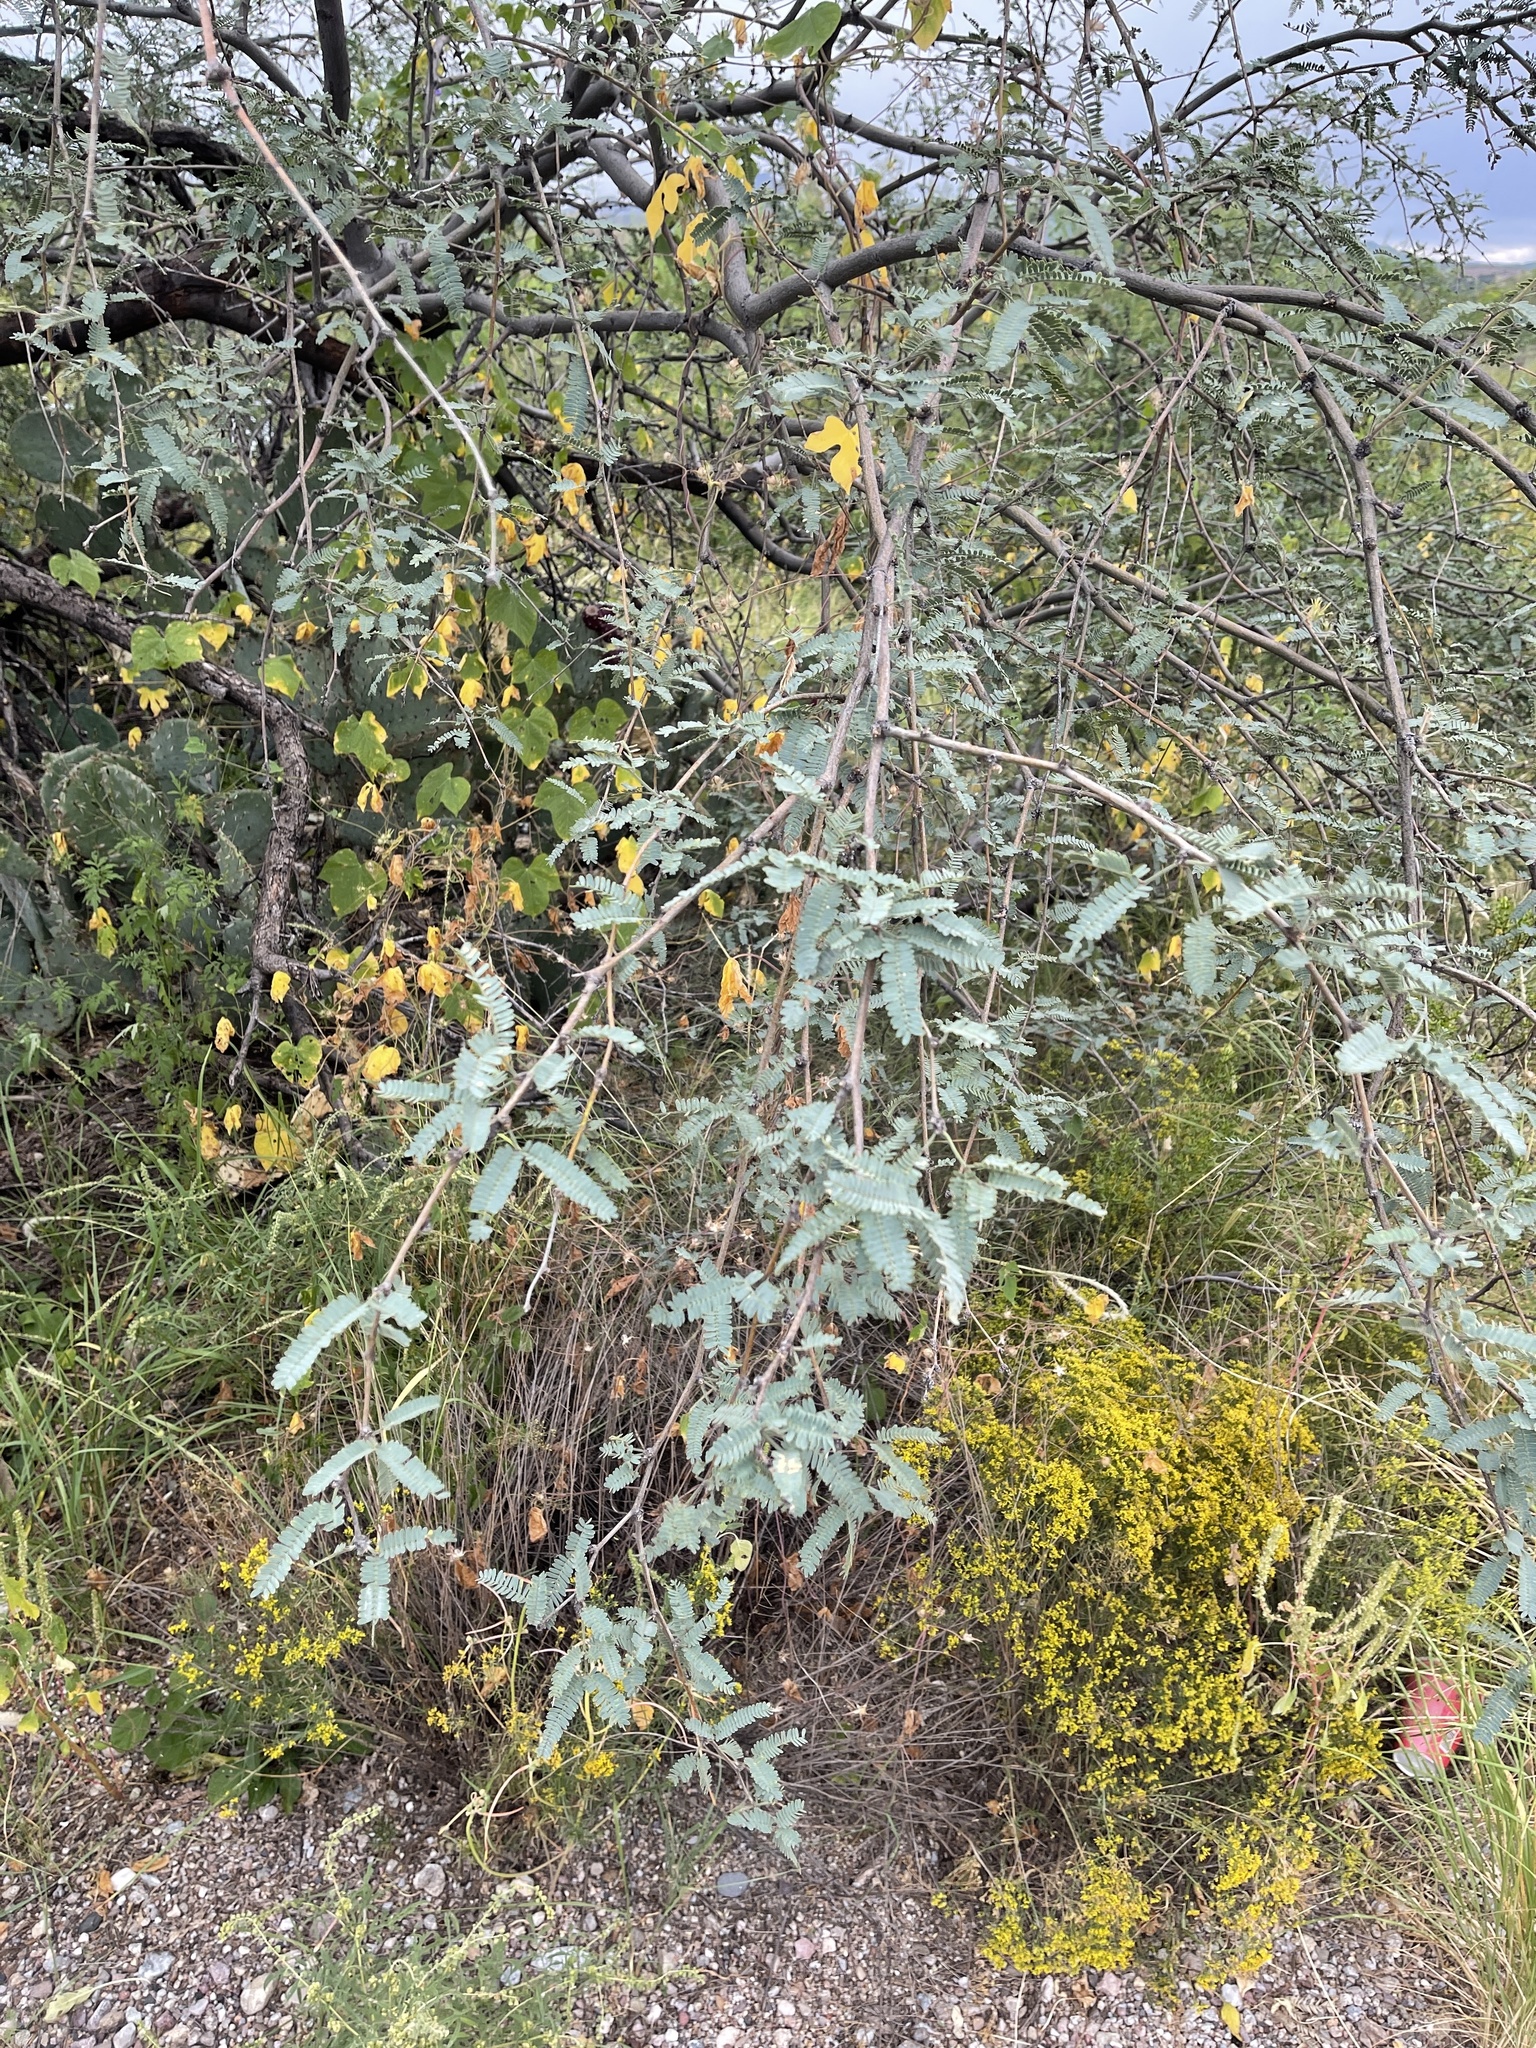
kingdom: Plantae
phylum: Tracheophyta
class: Magnoliopsida
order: Fabales
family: Fabaceae
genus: Prosopis
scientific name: Prosopis velutina
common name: Velvet mesquite
